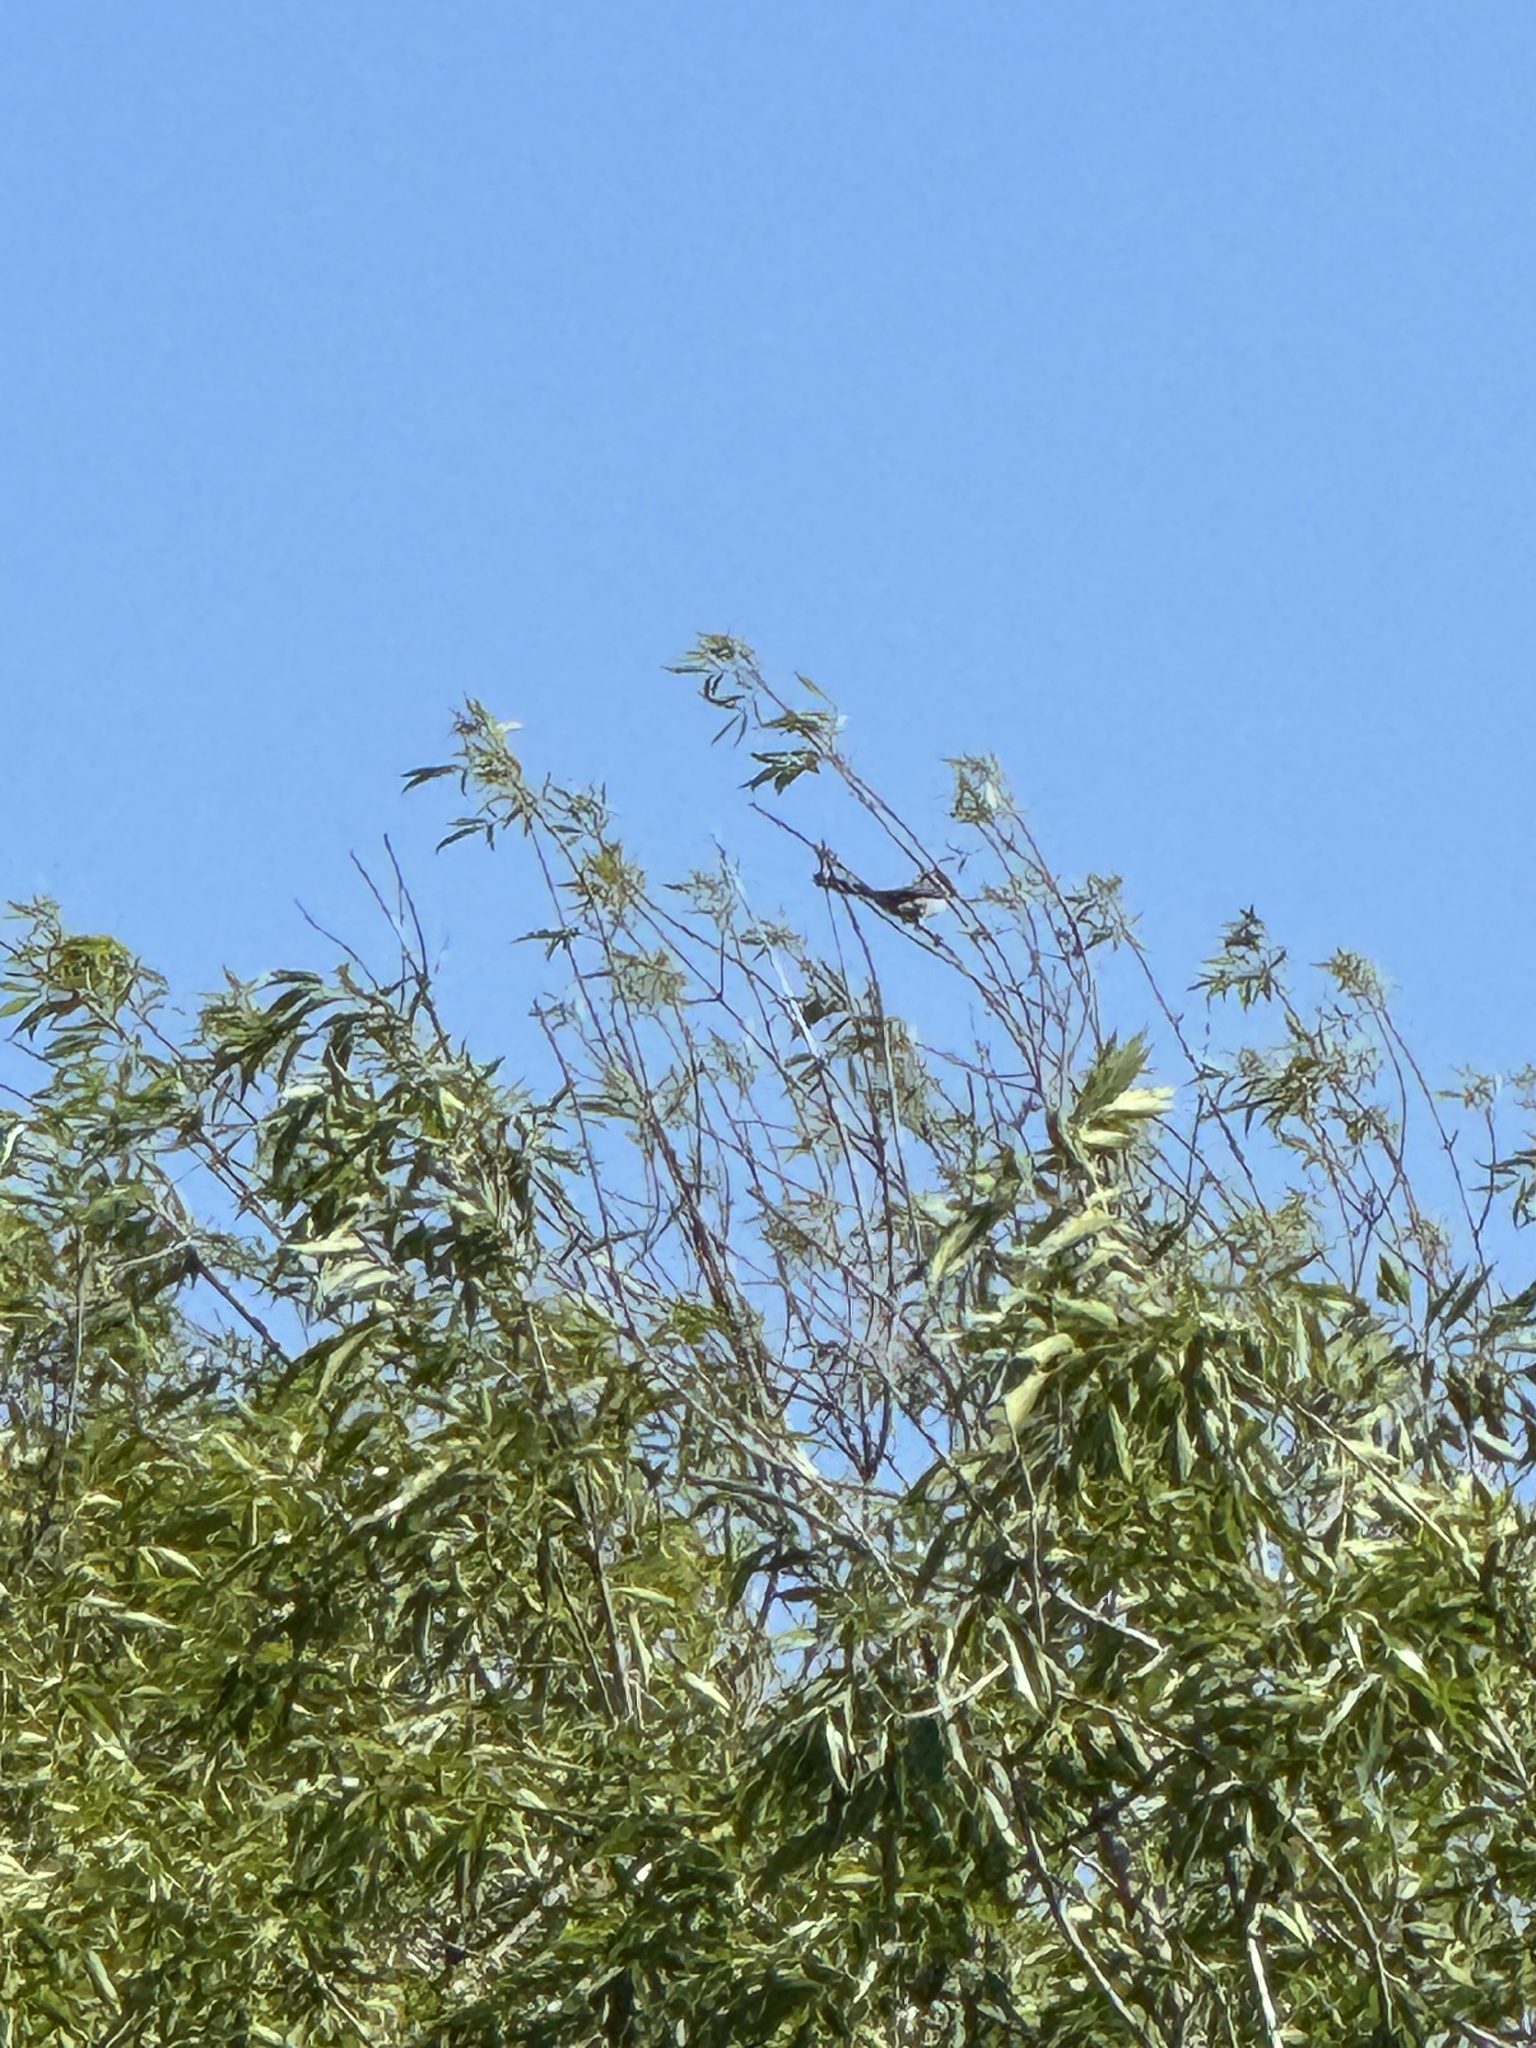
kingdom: Animalia
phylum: Chordata
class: Aves
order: Passeriformes
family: Corvidae
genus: Aphelocoma
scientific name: Aphelocoma californica
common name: California scrub-jay
